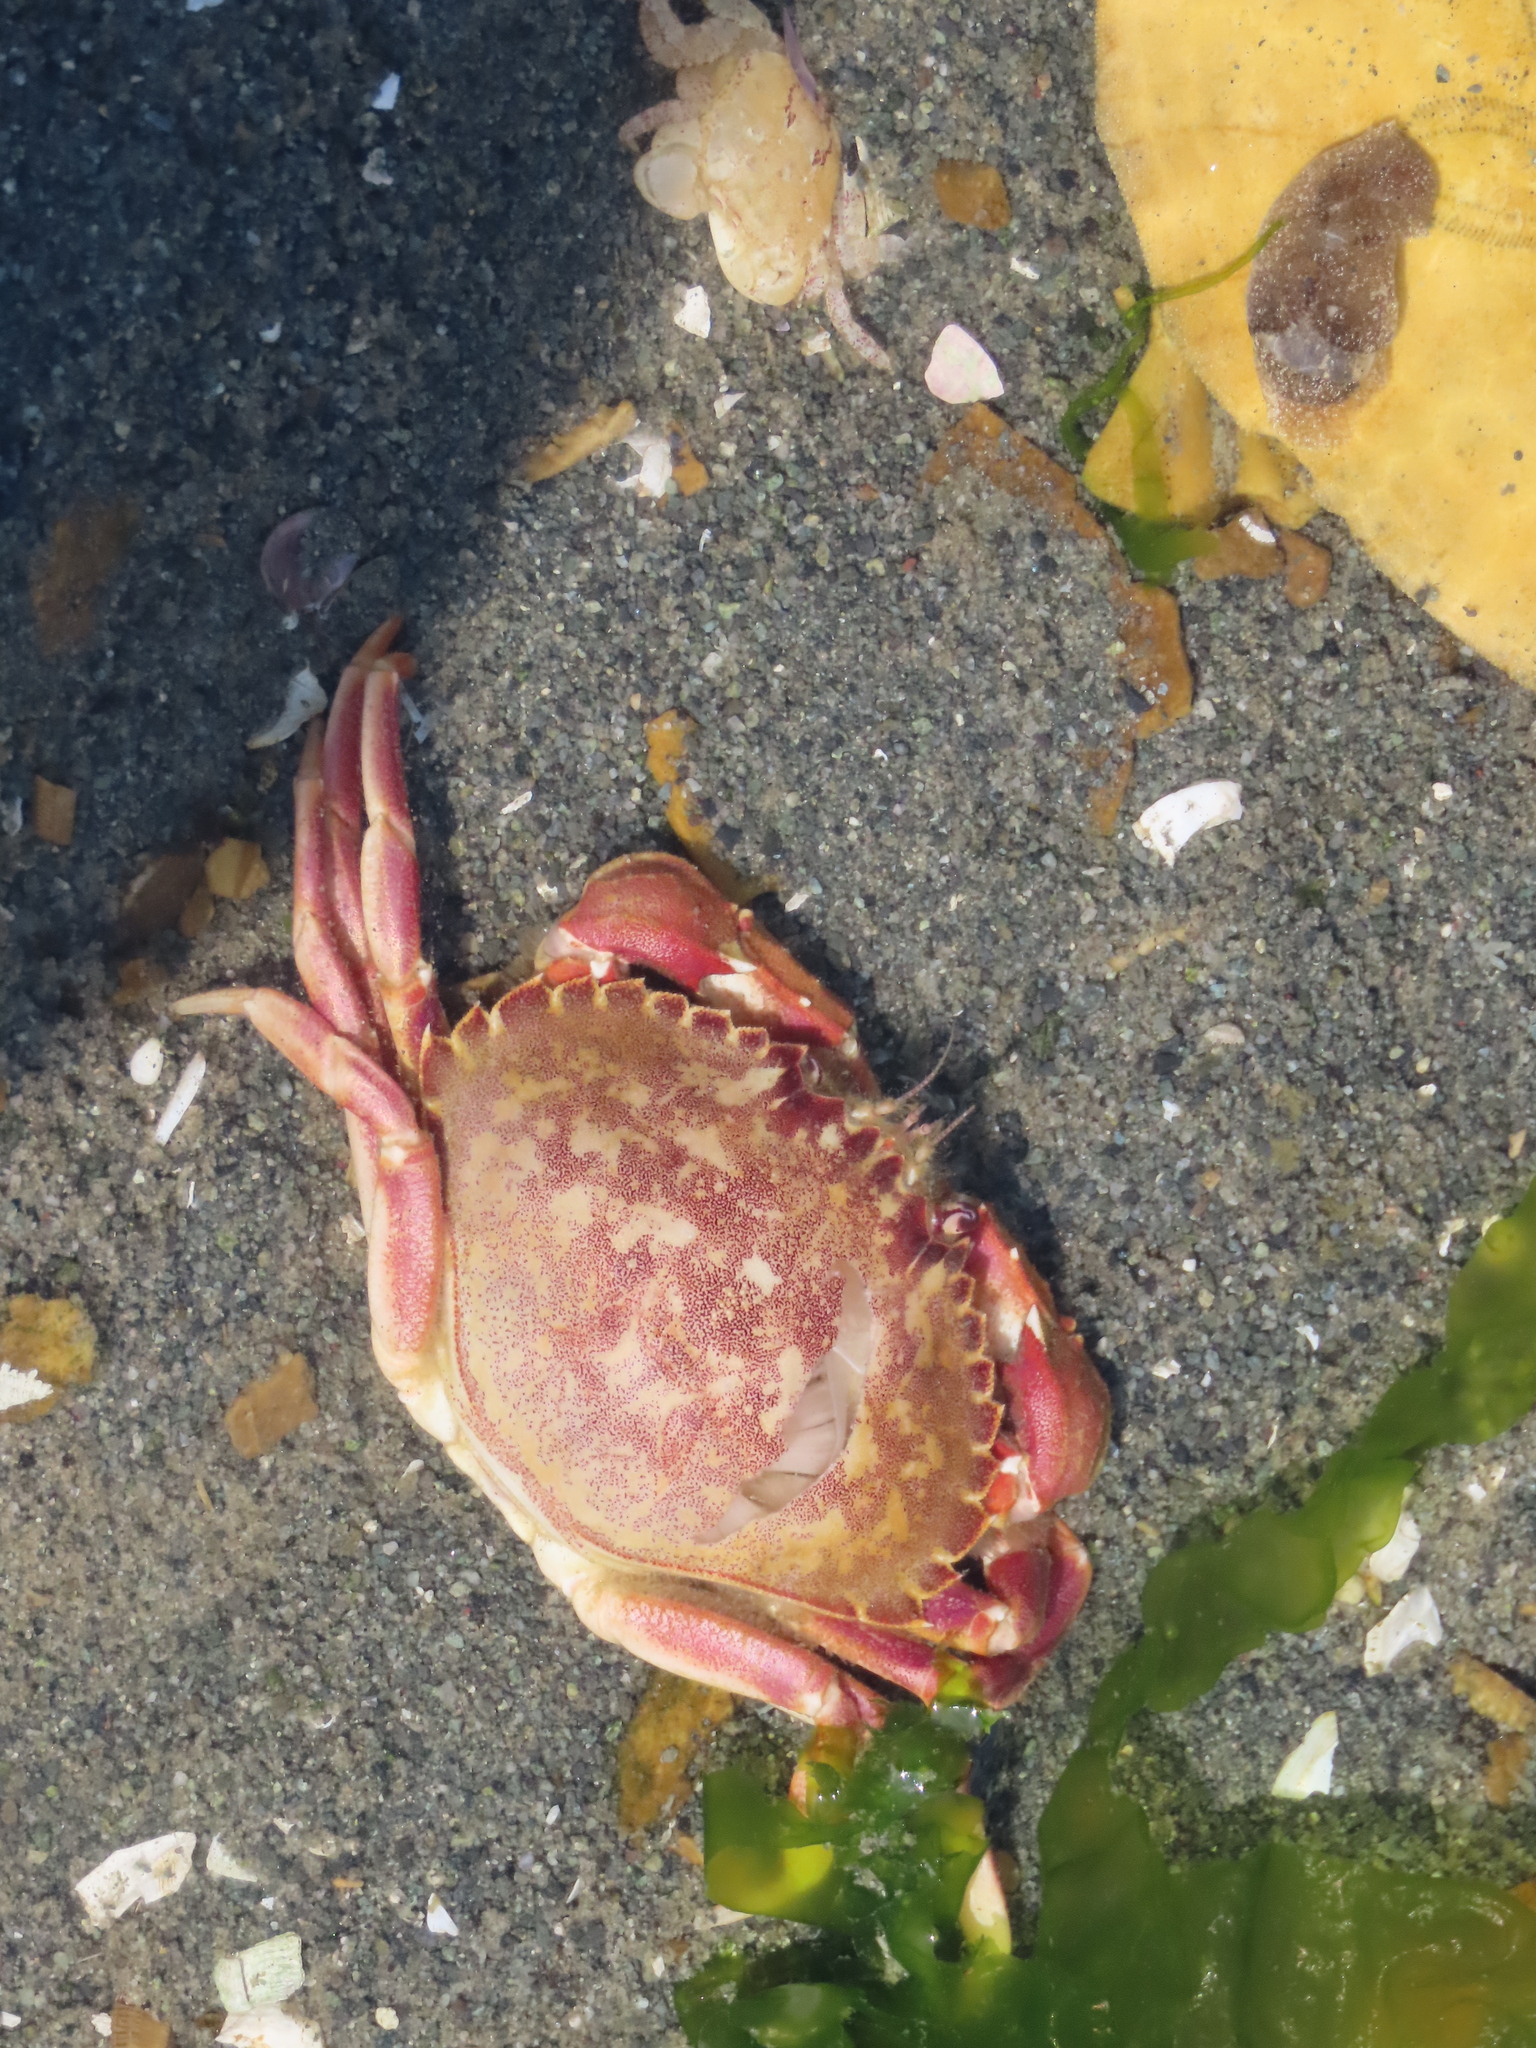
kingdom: Animalia
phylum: Arthropoda
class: Malacostraca
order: Decapoda
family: Cancridae
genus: Metacarcinus
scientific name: Metacarcinus gracilis
